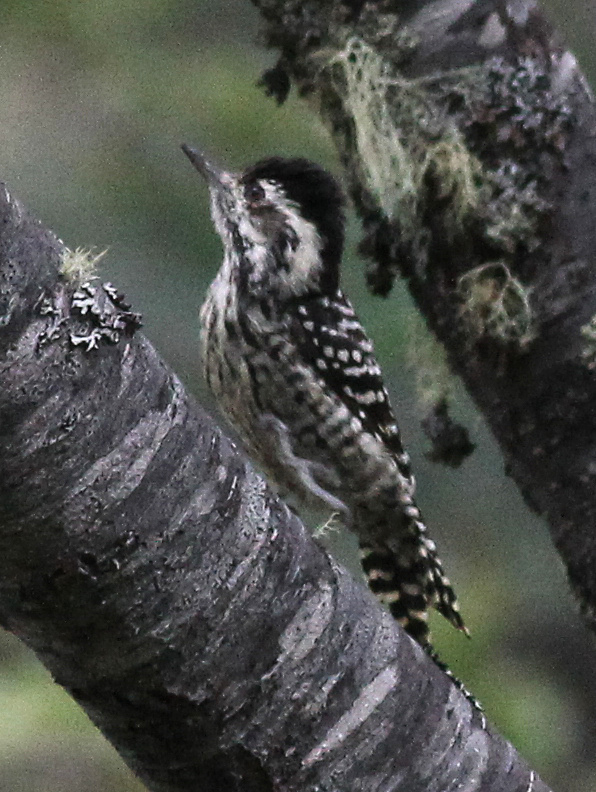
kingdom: Animalia
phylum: Chordata
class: Aves
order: Piciformes
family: Picidae
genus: Veniliornis
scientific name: Veniliornis lignarius
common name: Striped woodpecker
